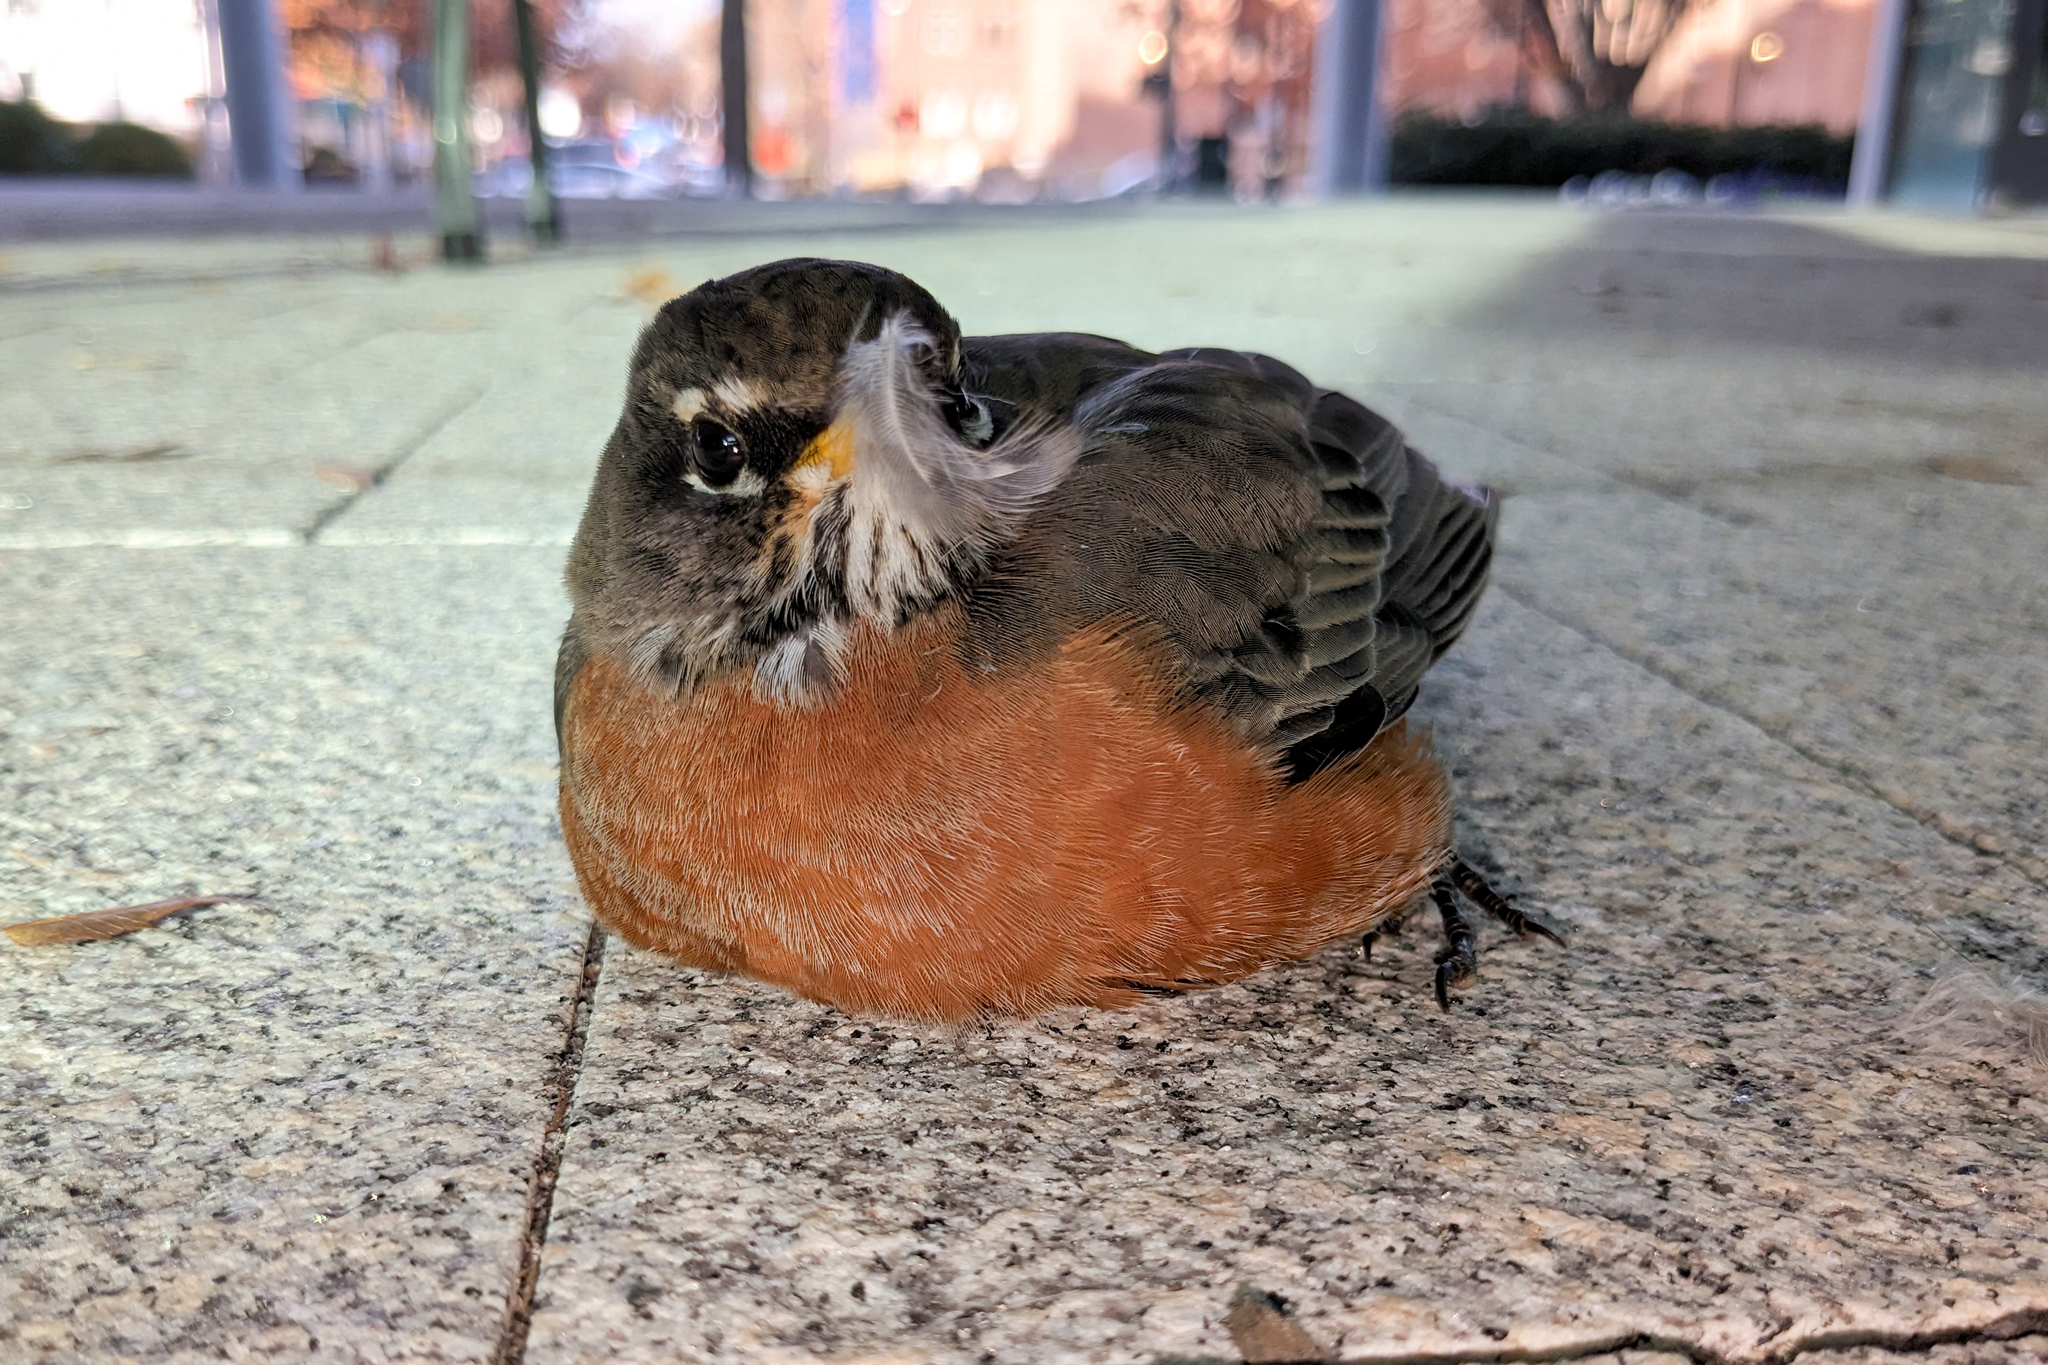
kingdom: Animalia
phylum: Chordata
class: Aves
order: Passeriformes
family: Turdidae
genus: Turdus
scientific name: Turdus migratorius
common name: American robin
